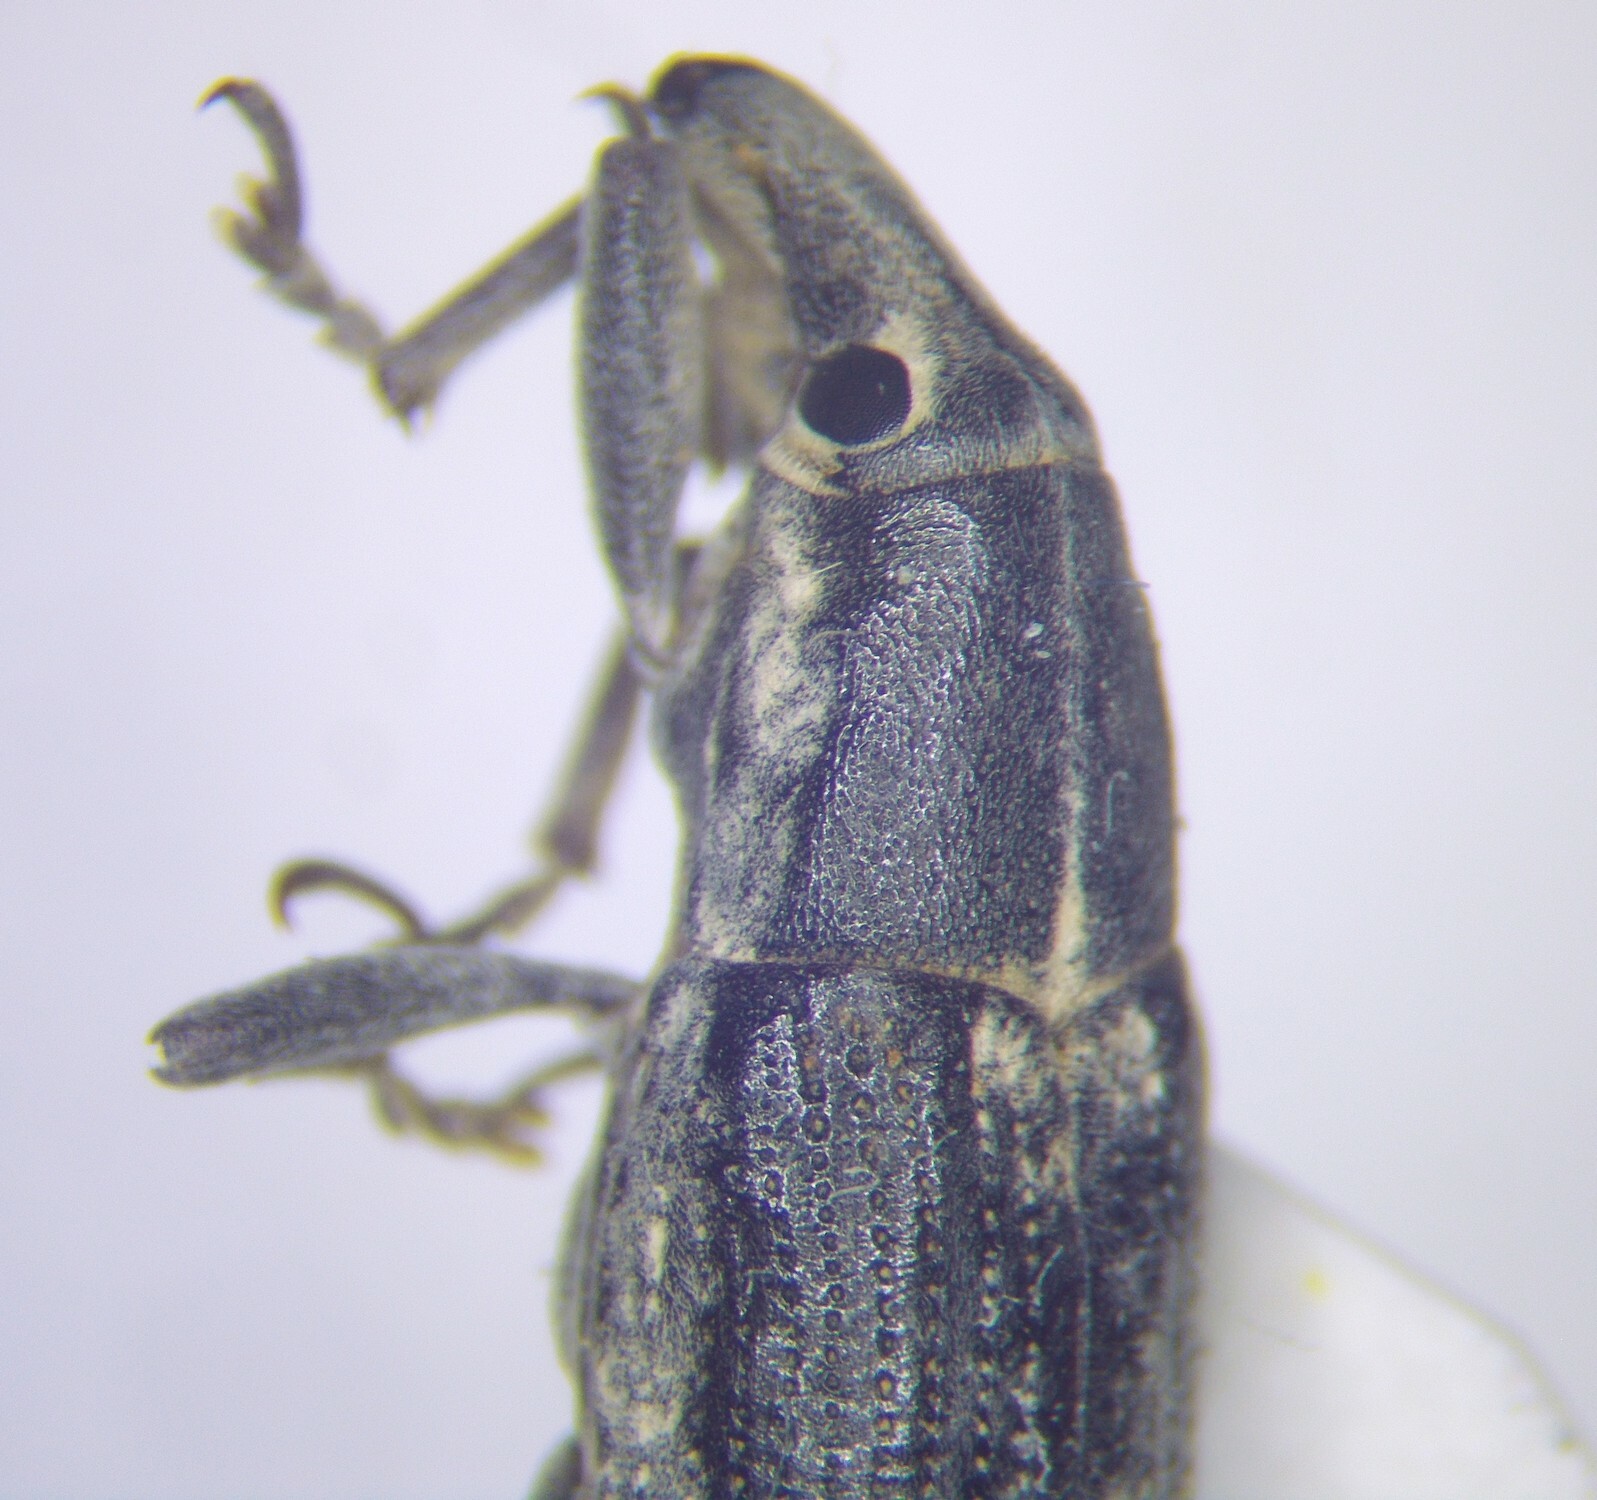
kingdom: Animalia
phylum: Arthropoda
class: Insecta
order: Coleoptera
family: Curculionidae
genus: Lixus
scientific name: Lixus astrachanicus
